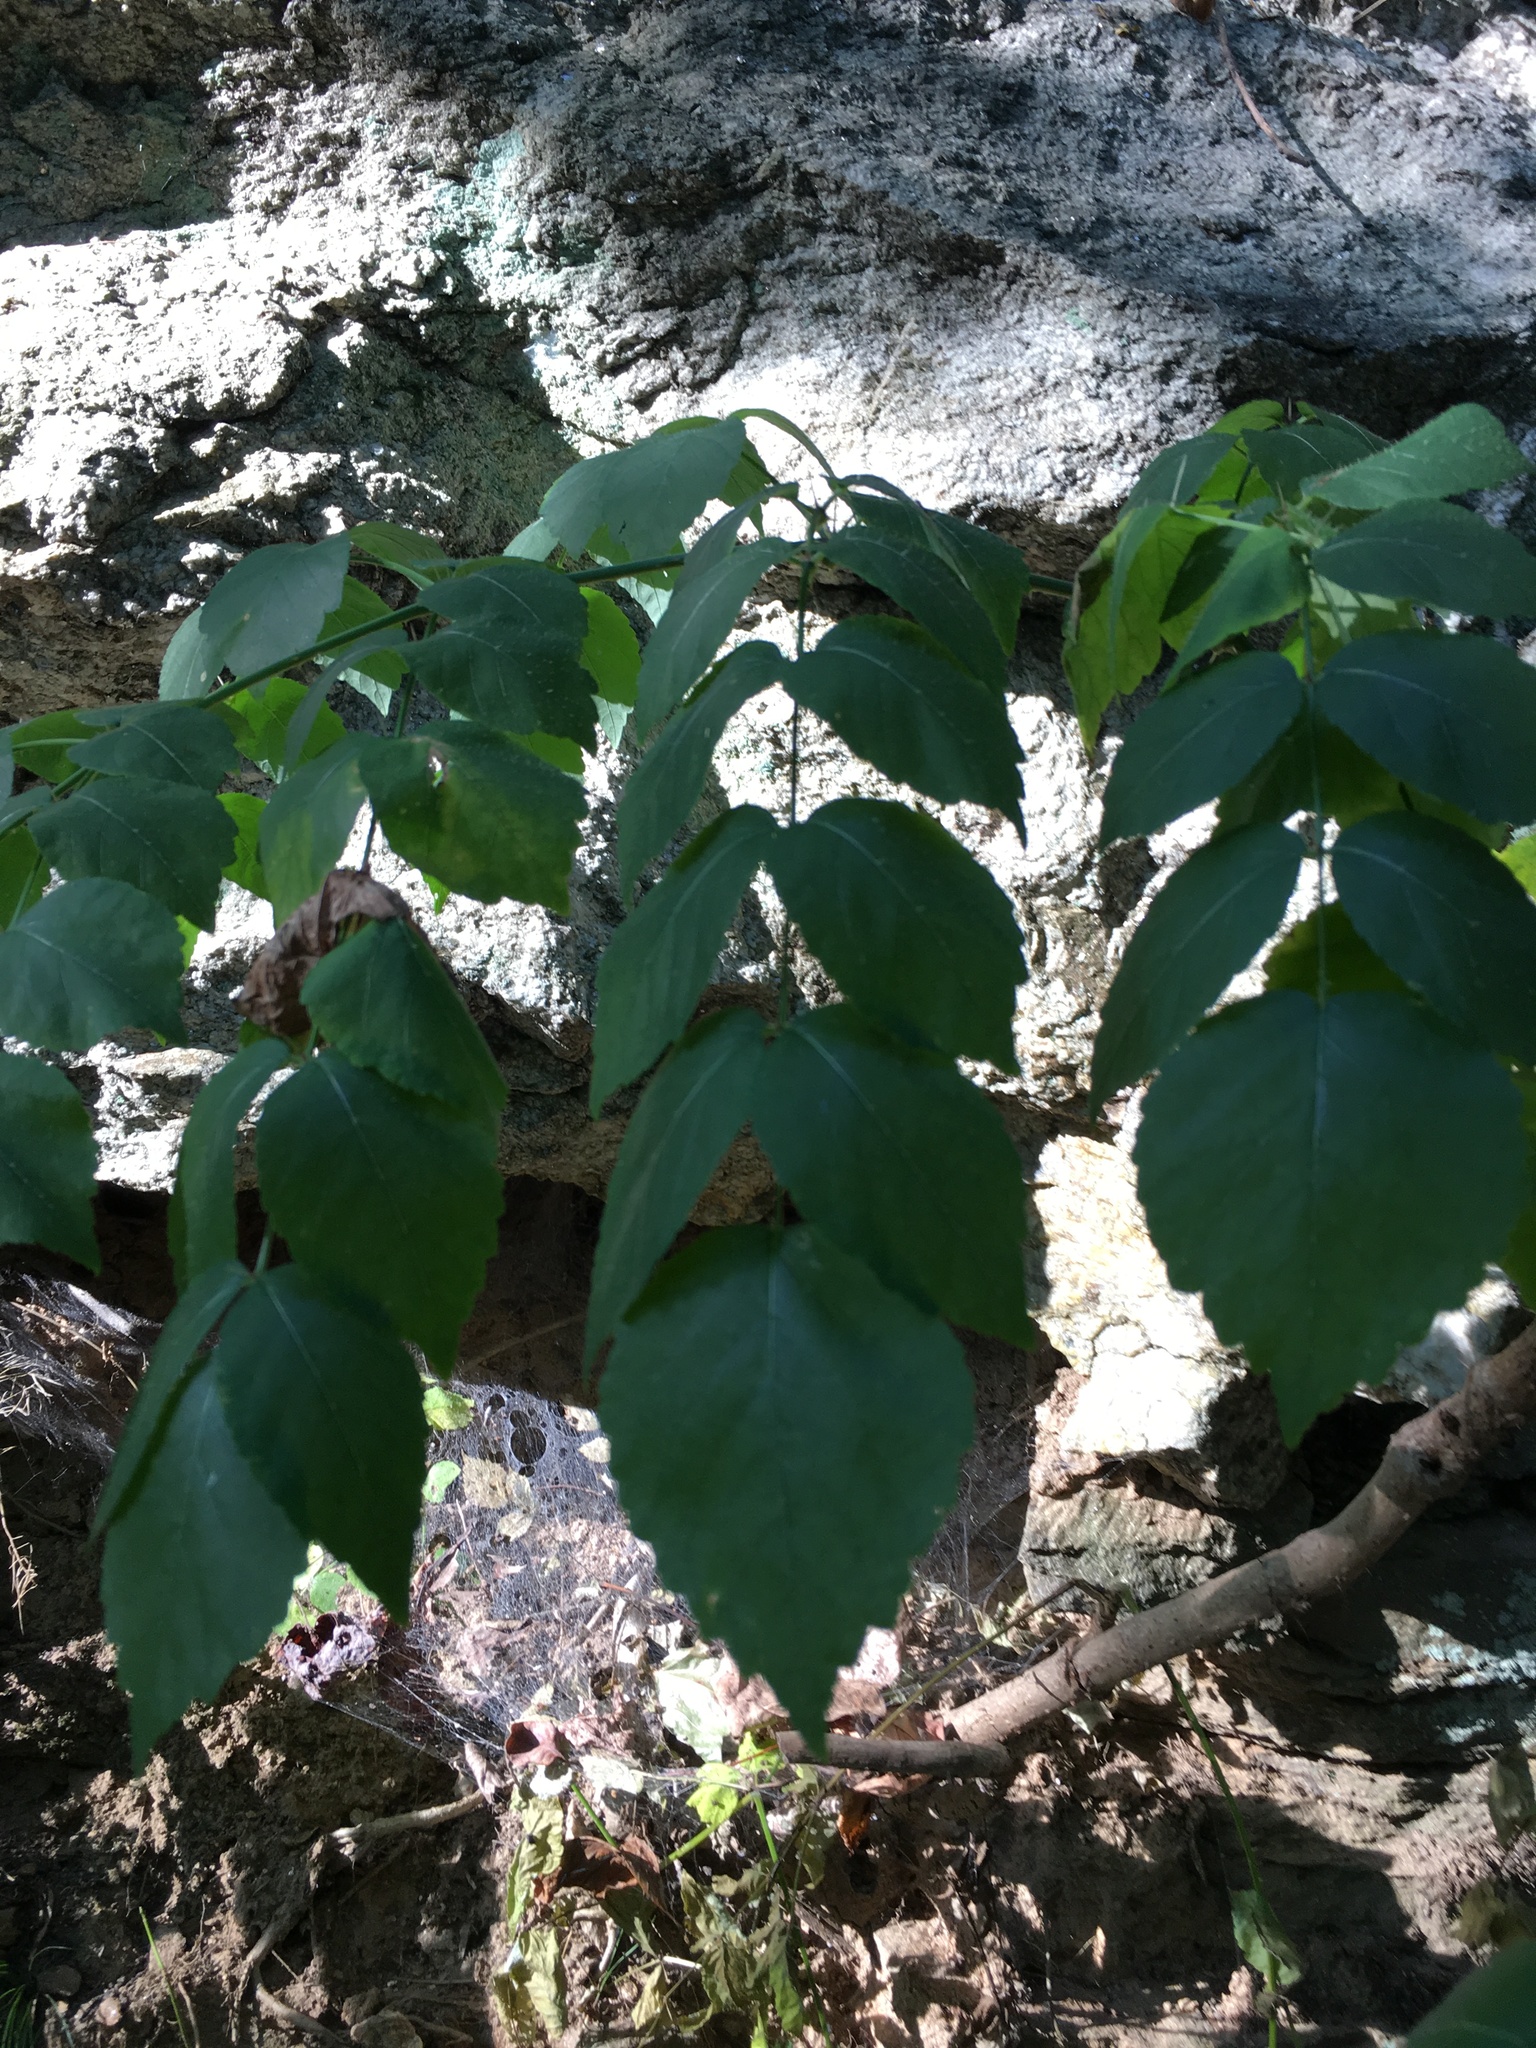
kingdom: Plantae
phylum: Tracheophyta
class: Magnoliopsida
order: Apiales
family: Araliaceae
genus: Aralia
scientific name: Aralia elata
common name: Japanese angelica-tree
